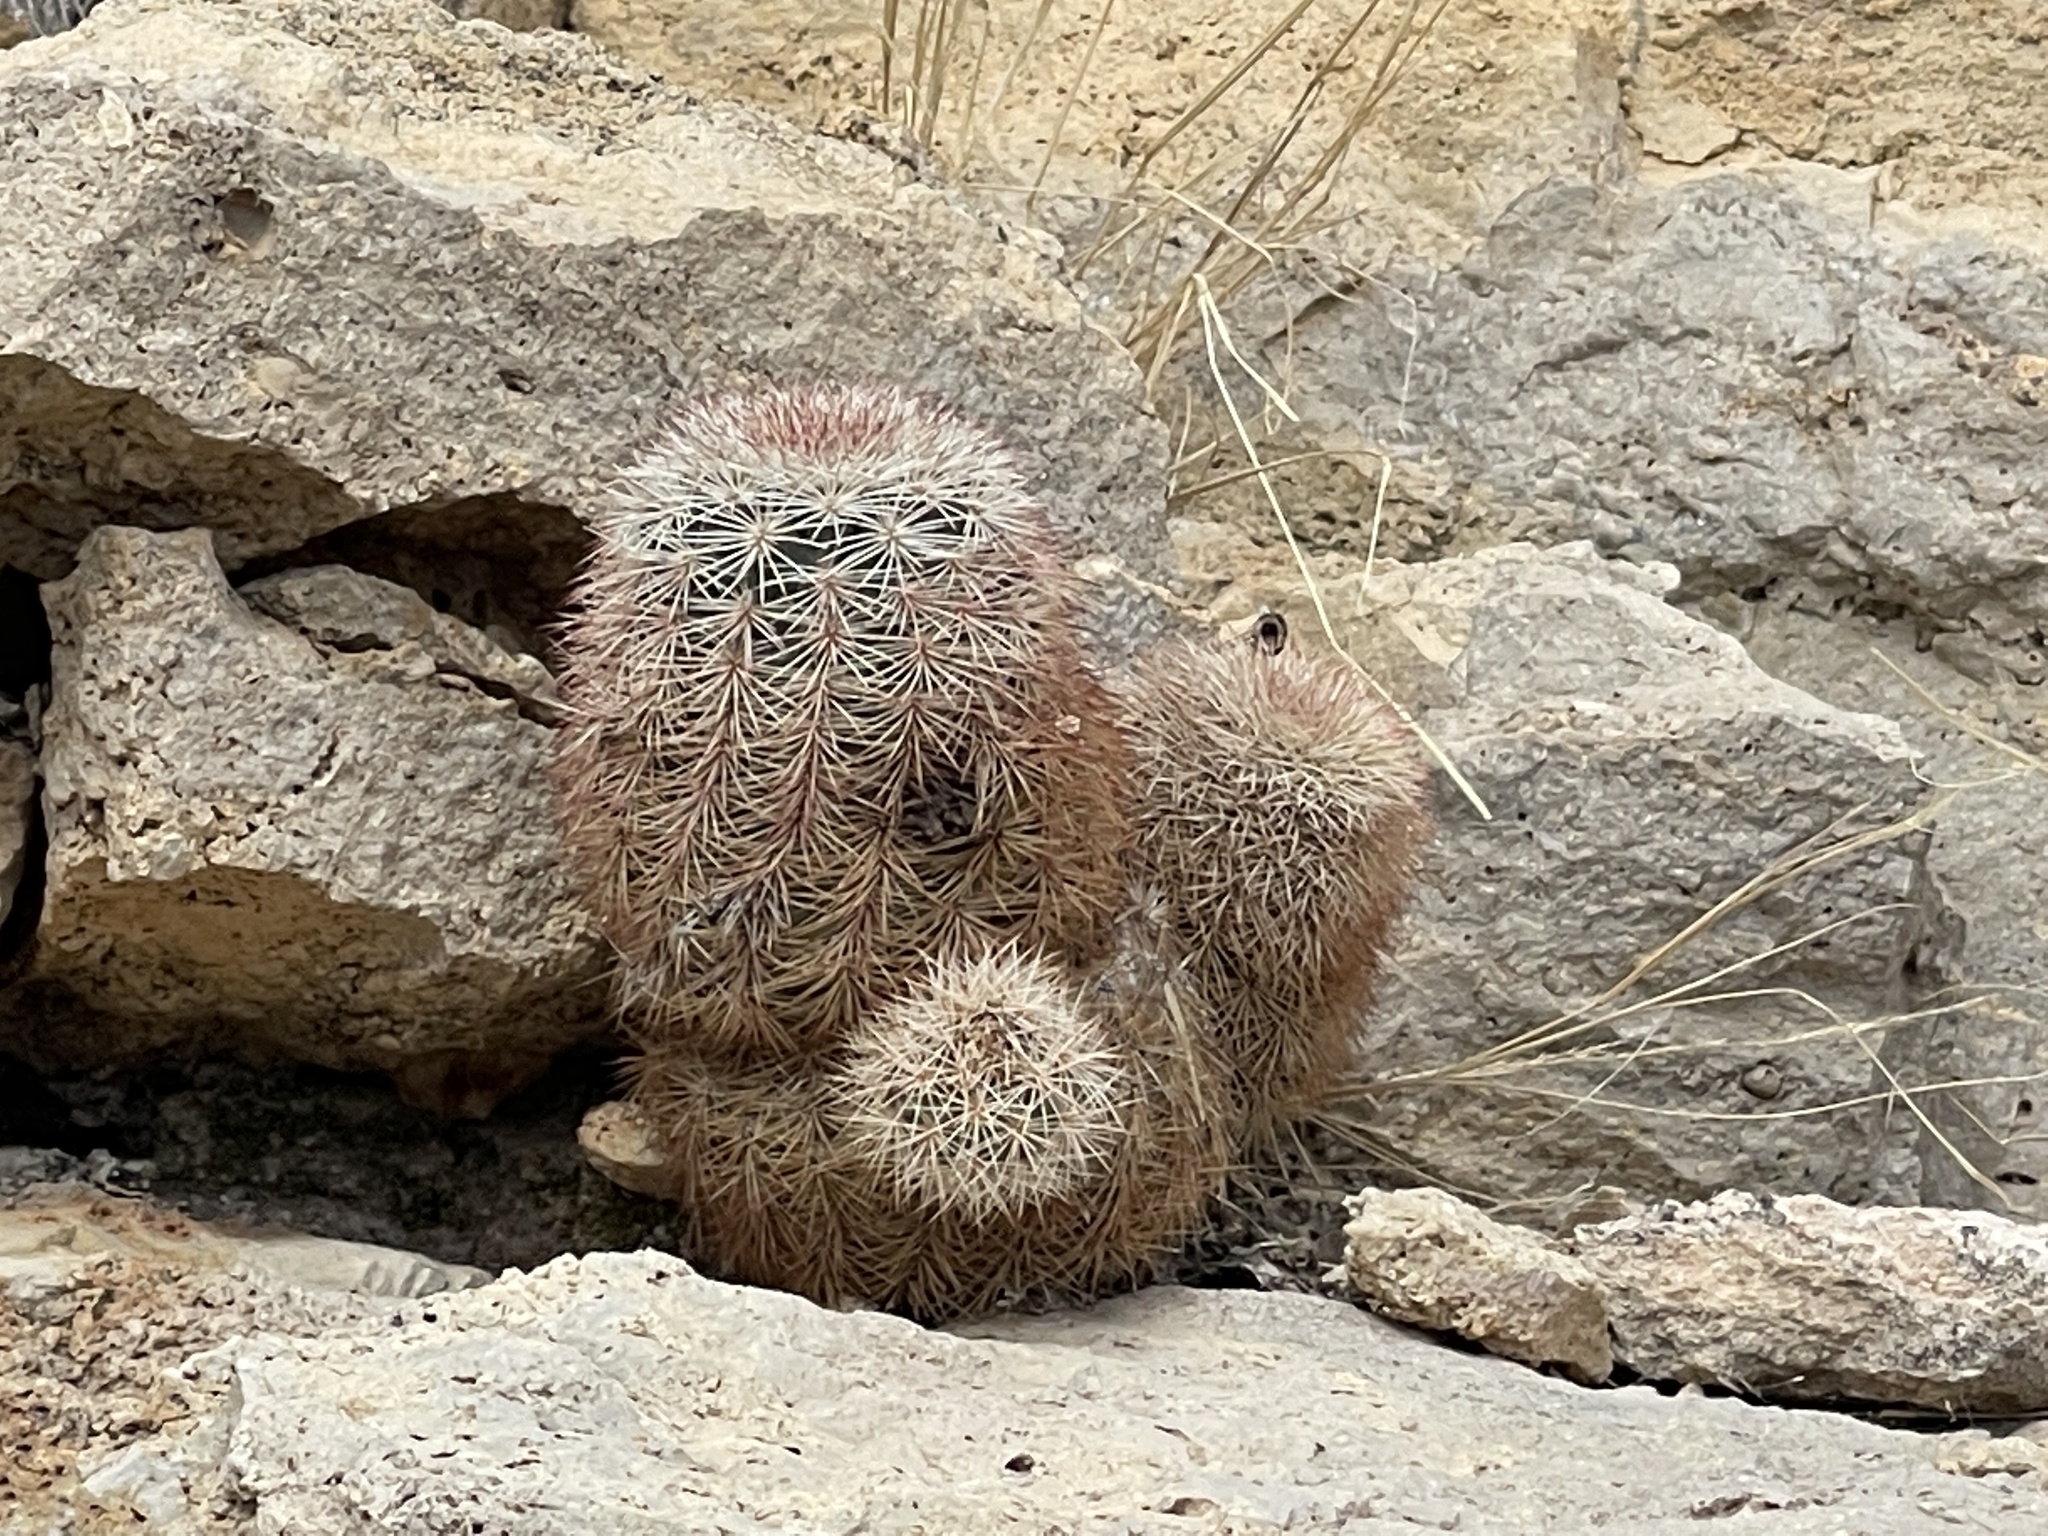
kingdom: Plantae
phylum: Tracheophyta
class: Magnoliopsida
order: Caryophyllales
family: Cactaceae
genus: Echinocereus
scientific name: Echinocereus dasyacanthus
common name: Spiny hedgehog cactus
